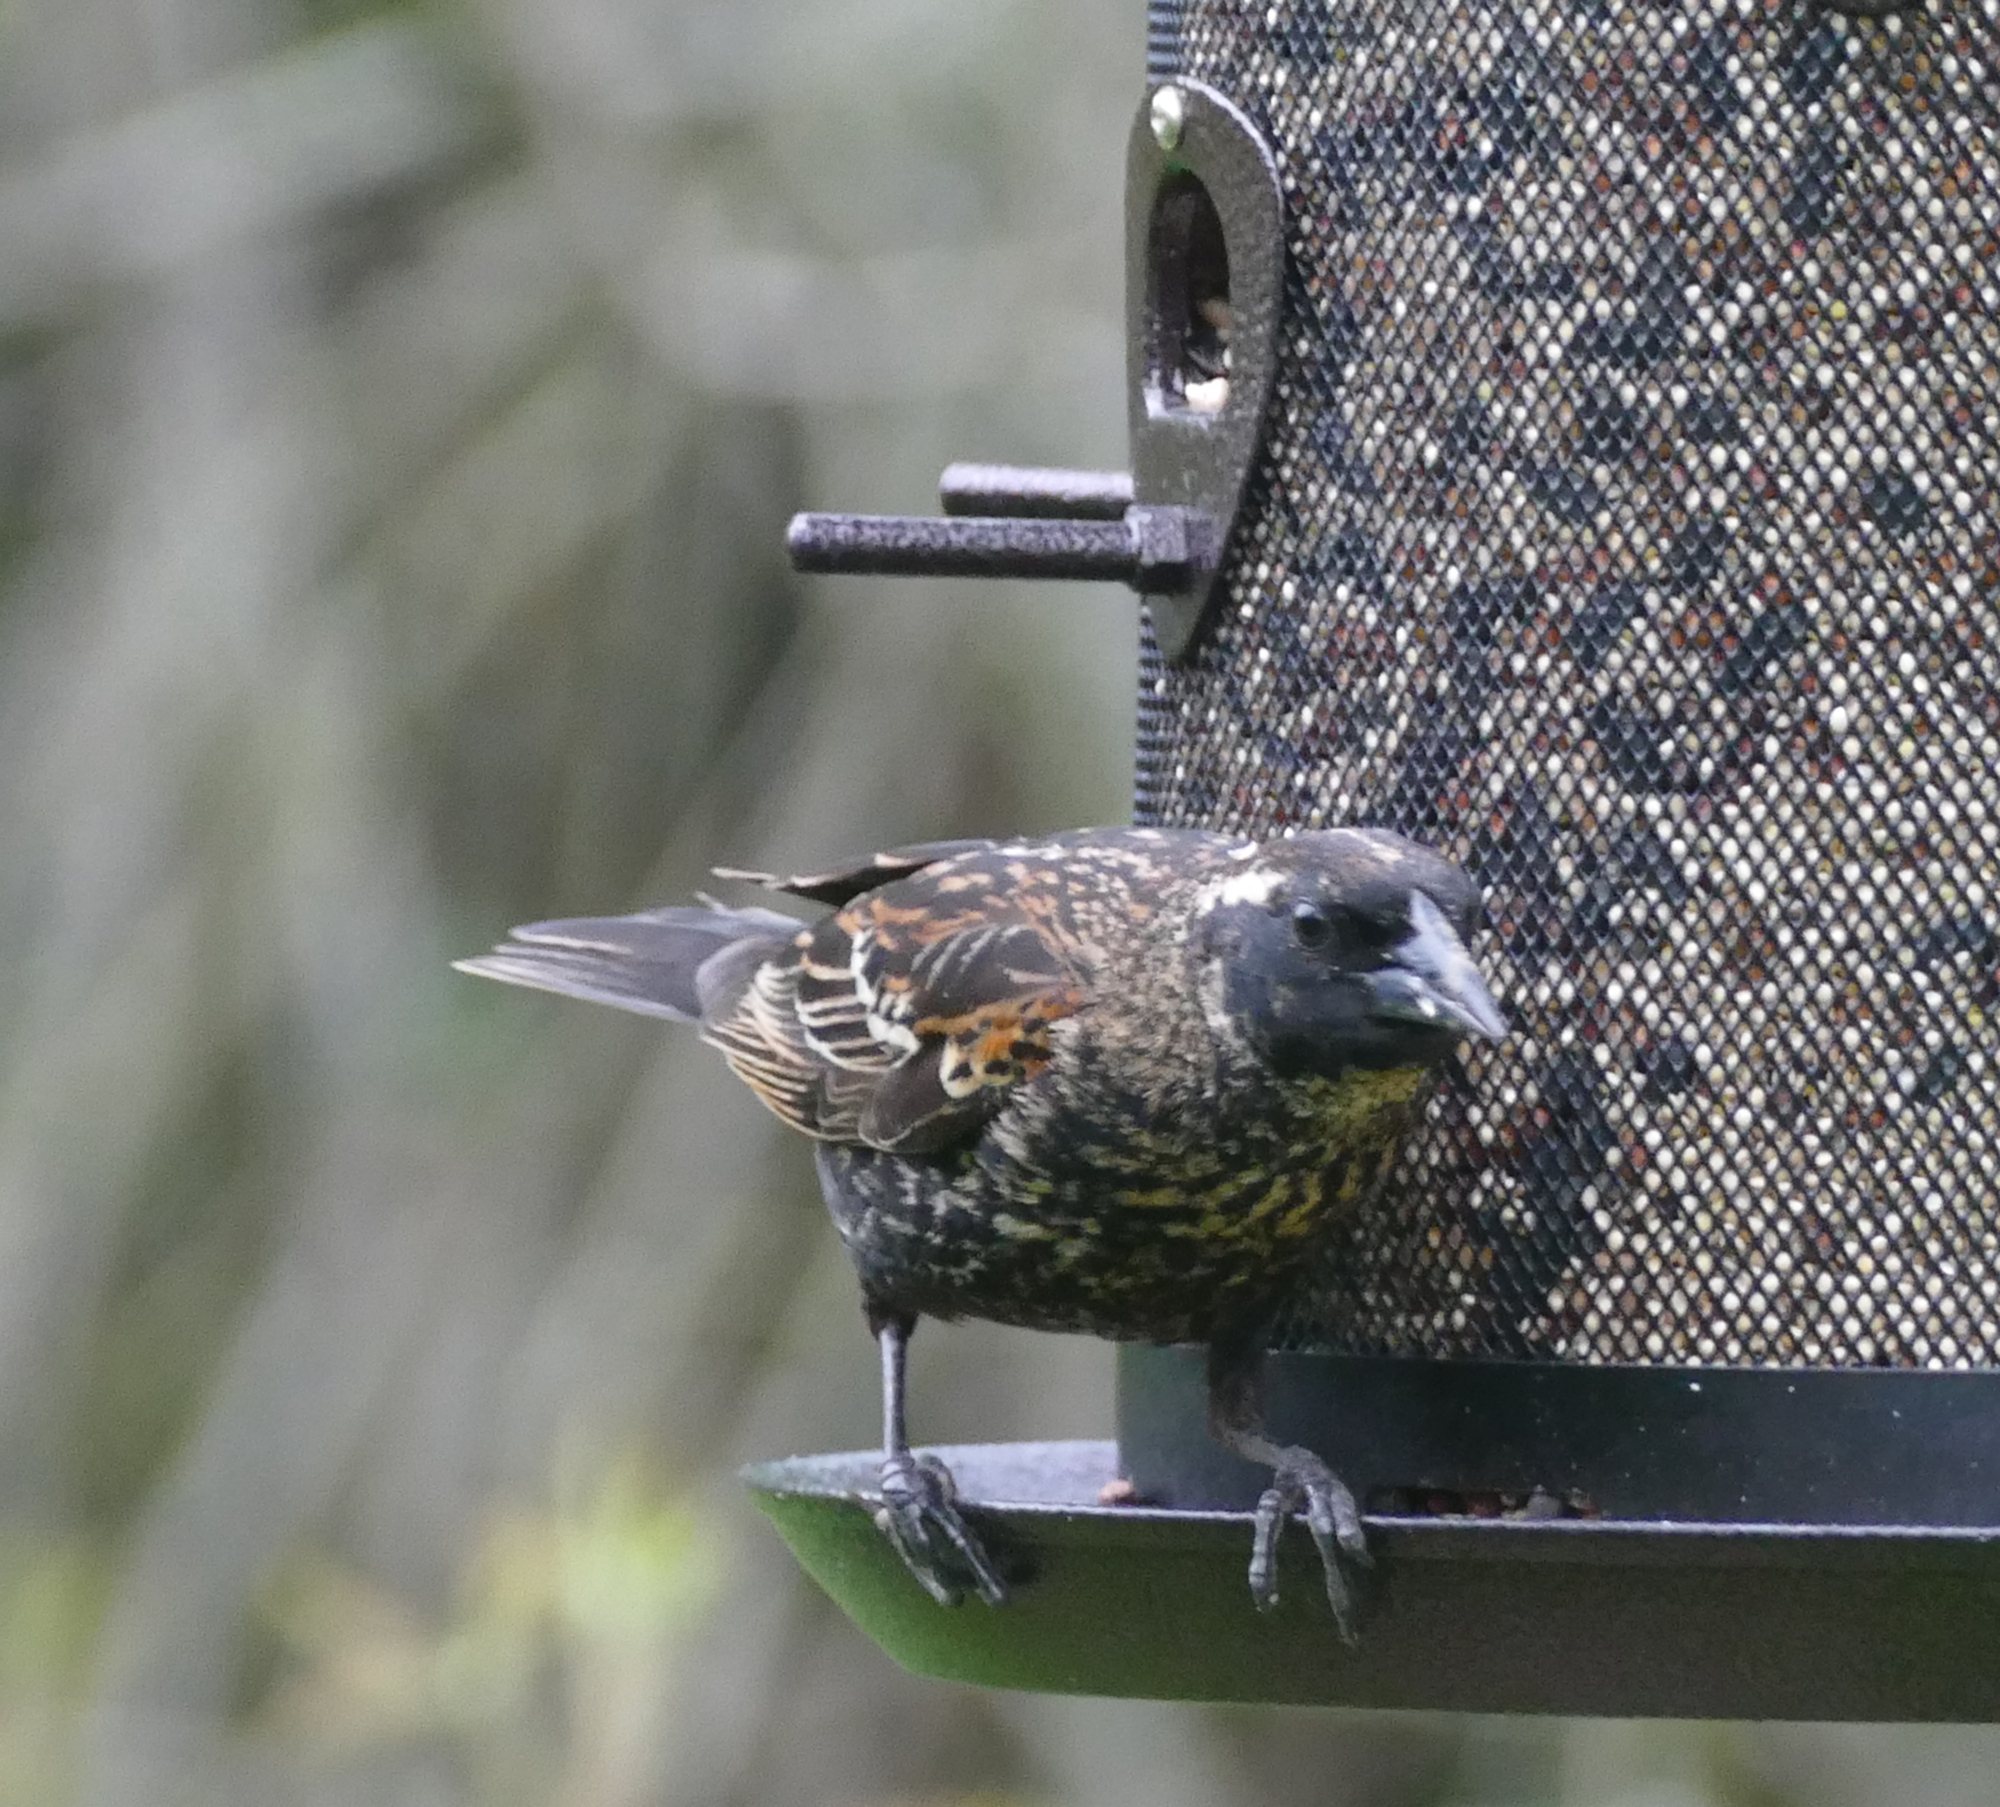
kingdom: Animalia
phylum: Chordata
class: Aves
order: Passeriformes
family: Icteridae
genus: Agelaius
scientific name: Agelaius phoeniceus
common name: Red-winged blackbird
